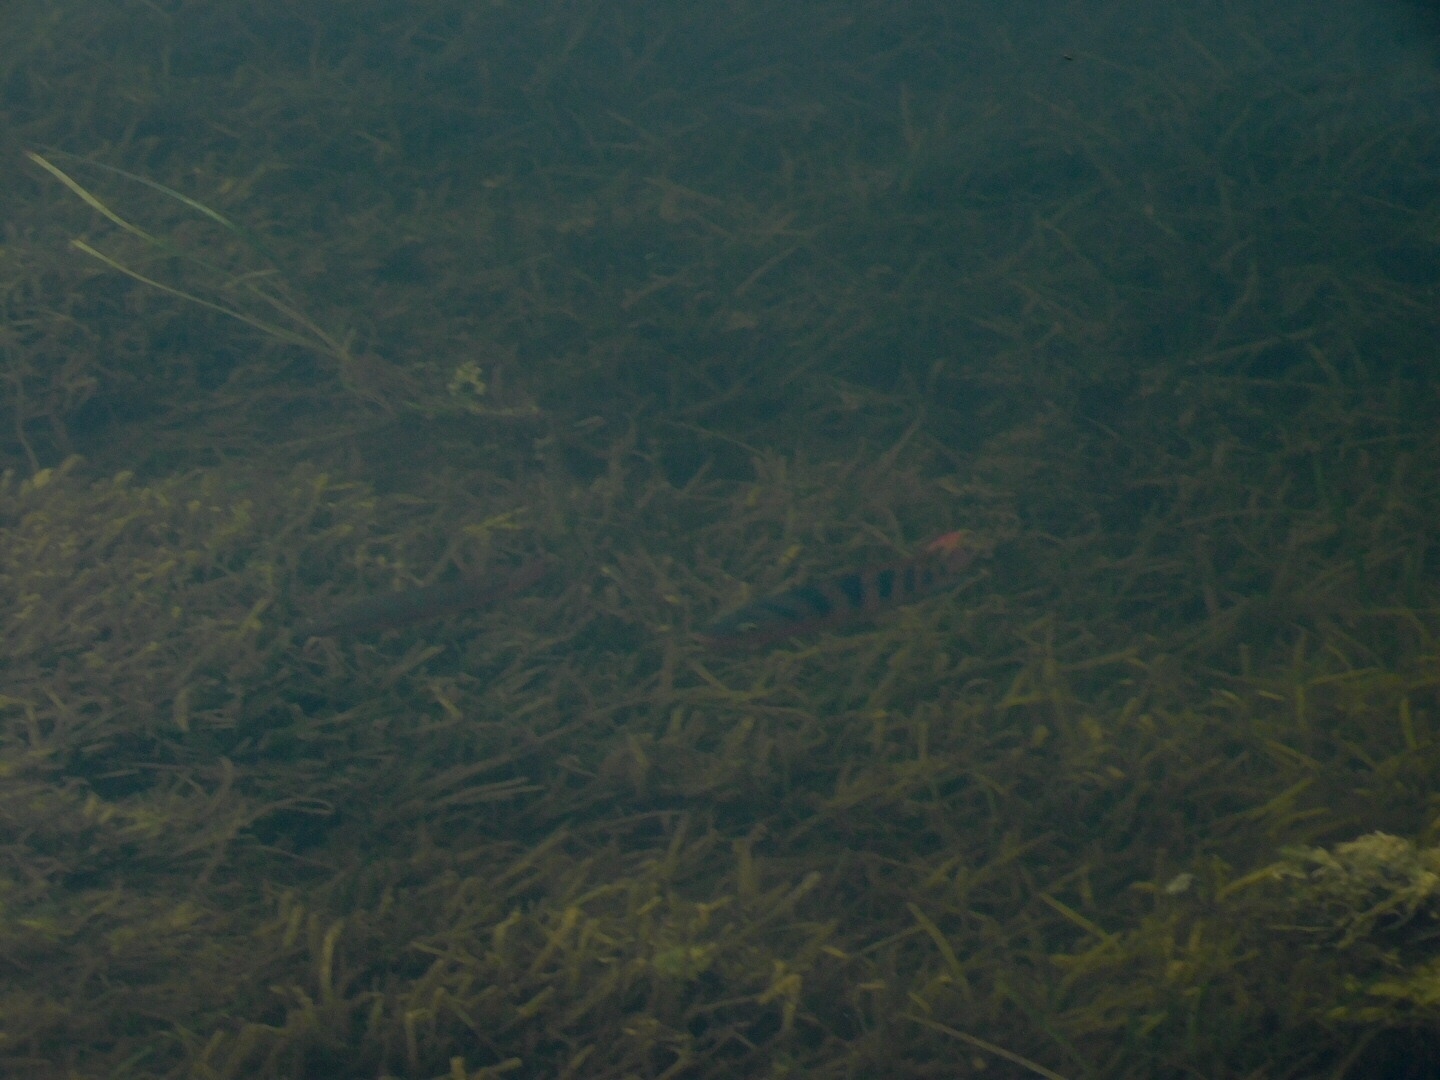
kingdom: Animalia
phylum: Chordata
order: Perciformes
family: Cichlidae
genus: Mayaheros
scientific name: Mayaheros urophthalmus
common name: Mayan cichlid
